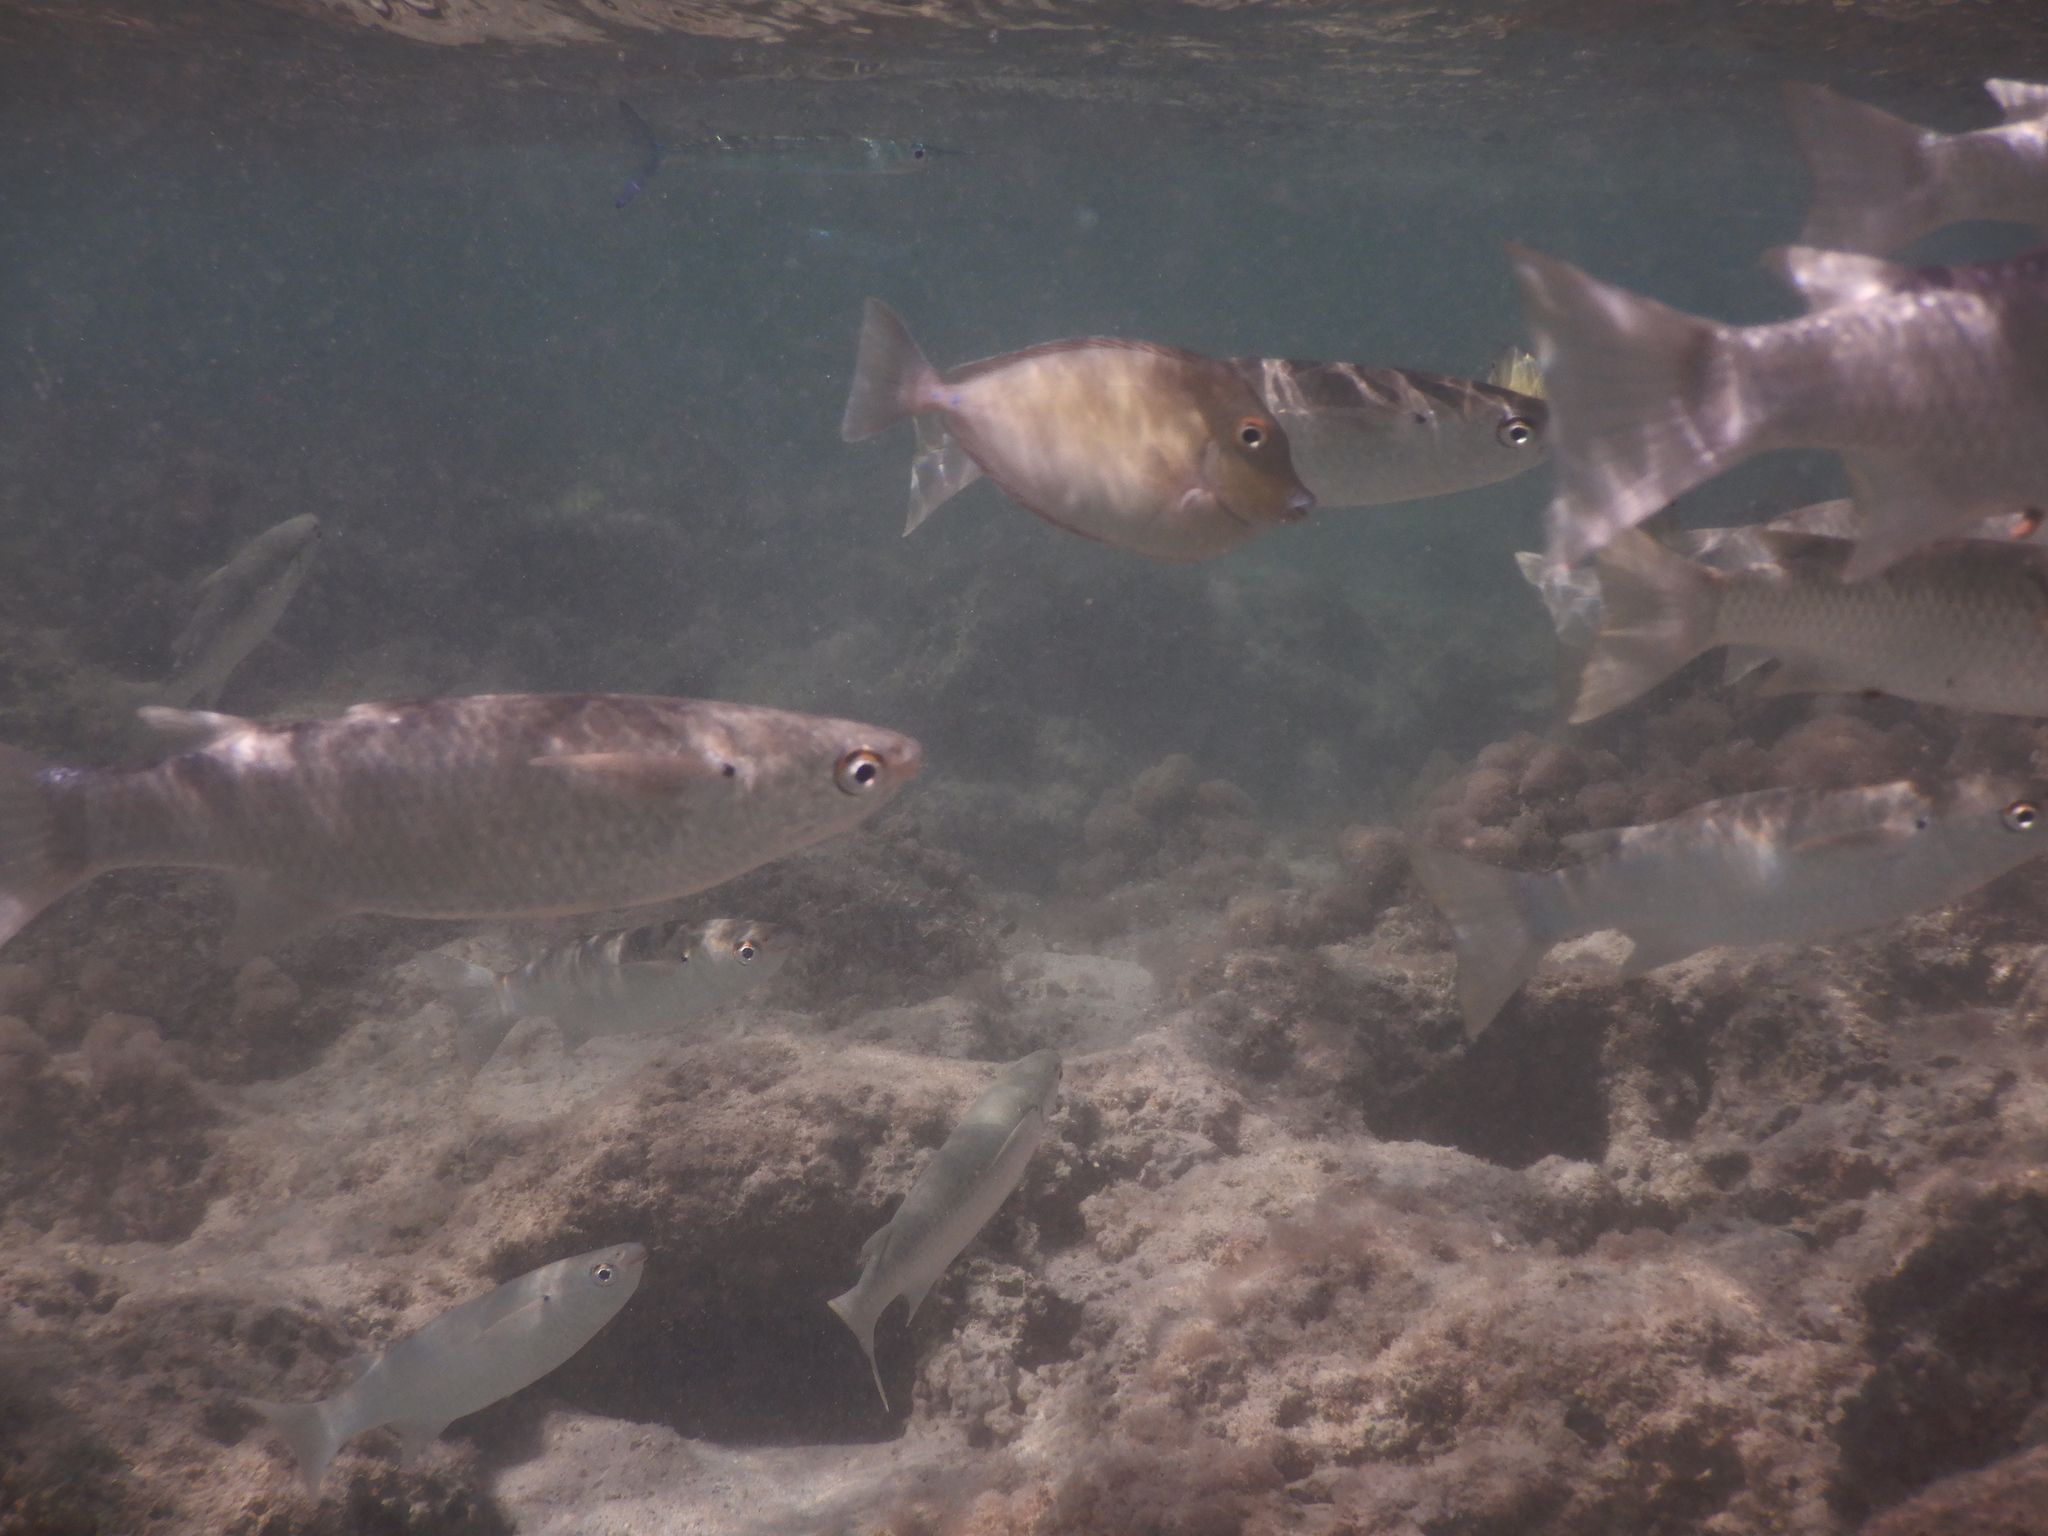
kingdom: Animalia
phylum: Chordata
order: Perciformes
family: Acanthuridae
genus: Naso
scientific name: Naso unicornis
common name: Bluespine unicornfish
